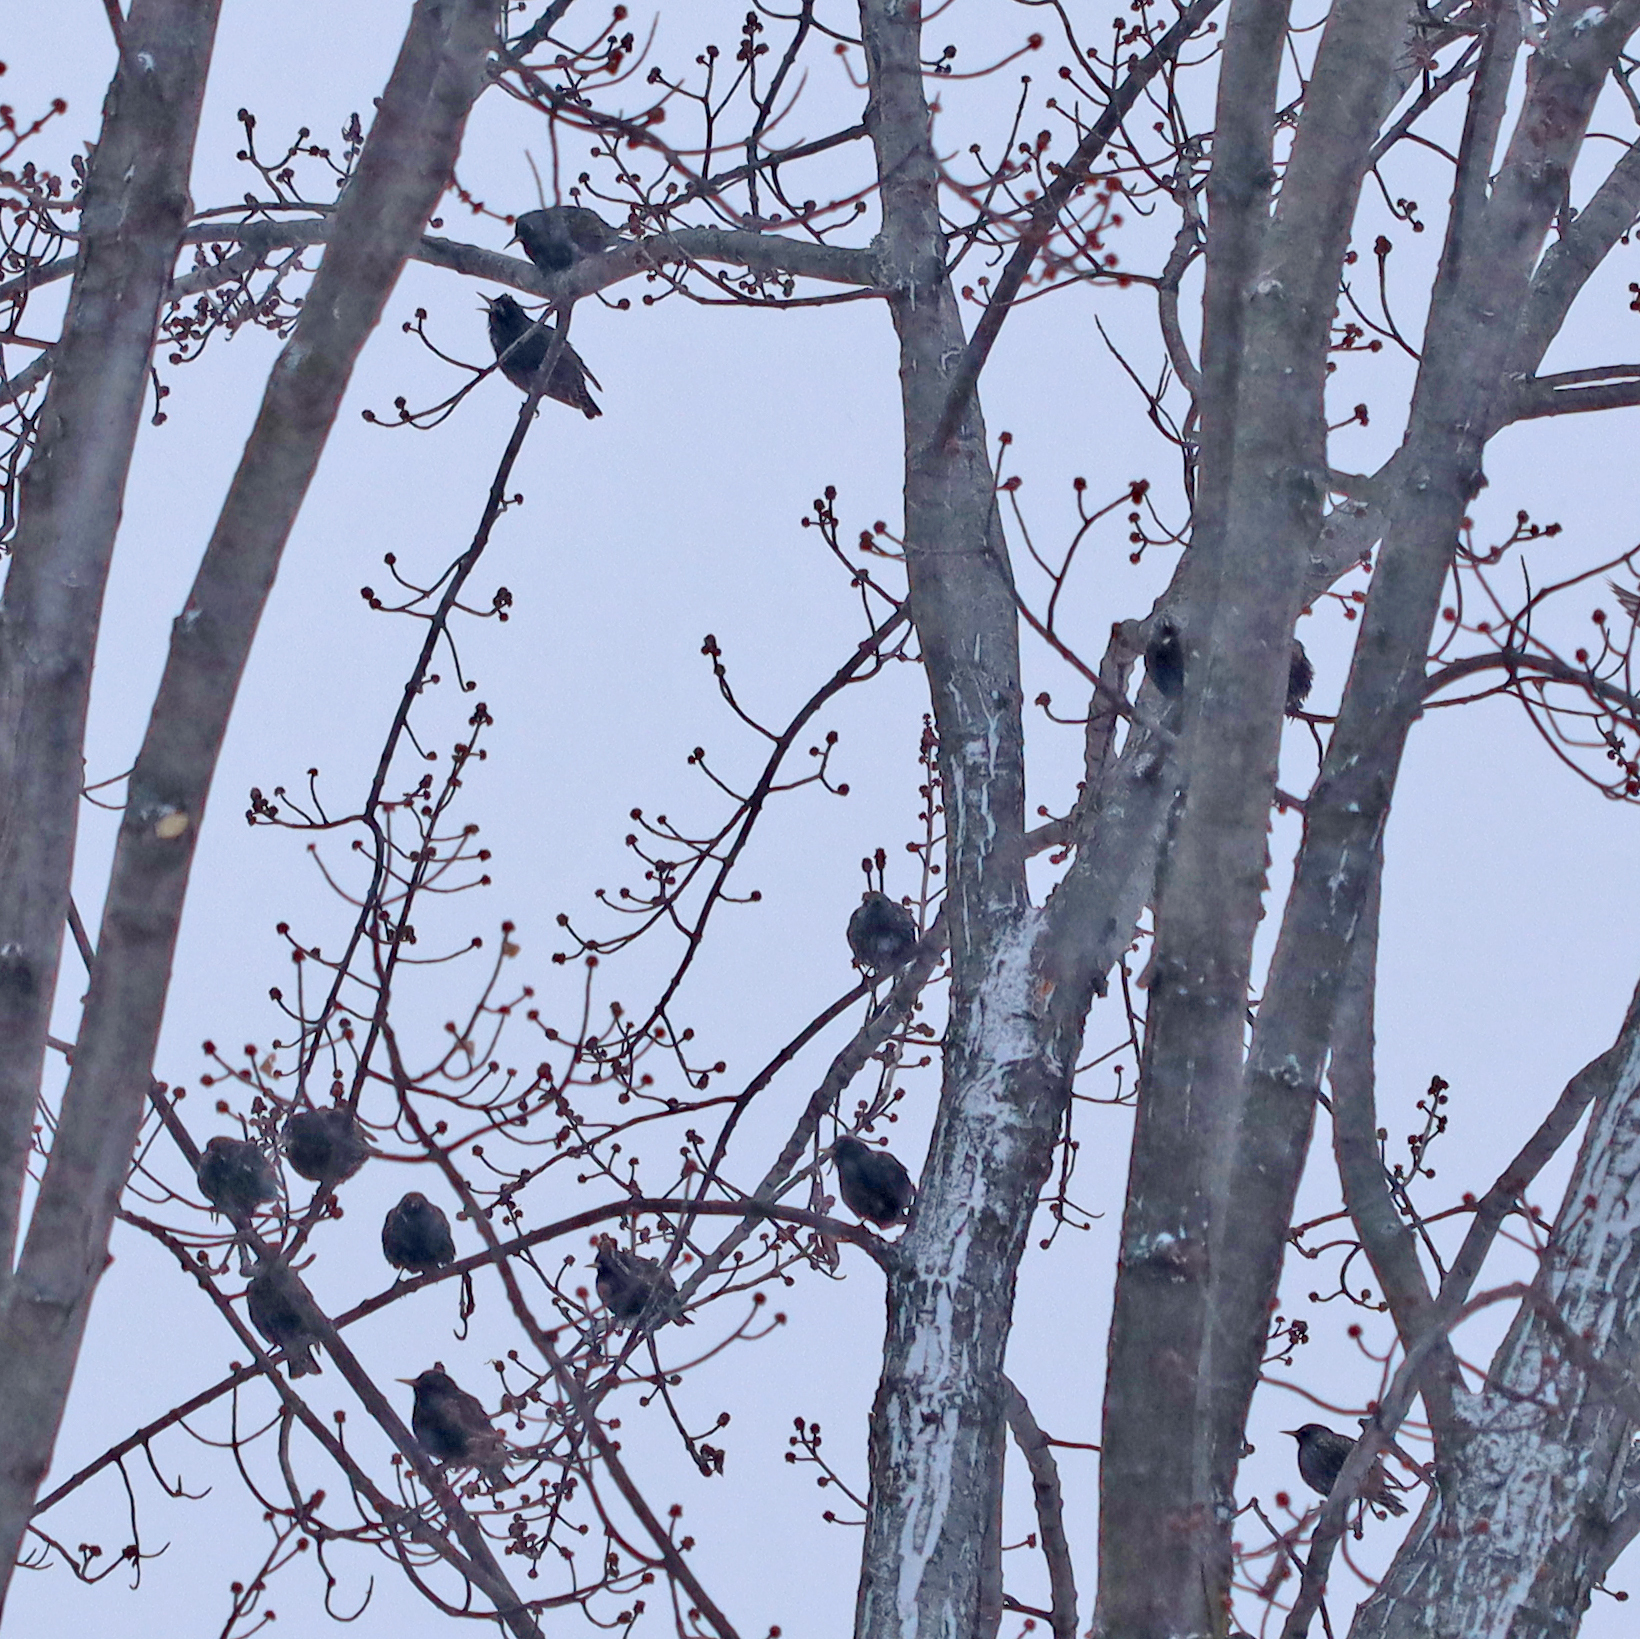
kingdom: Animalia
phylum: Chordata
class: Aves
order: Passeriformes
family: Sturnidae
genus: Sturnus
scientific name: Sturnus vulgaris
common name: Common starling
